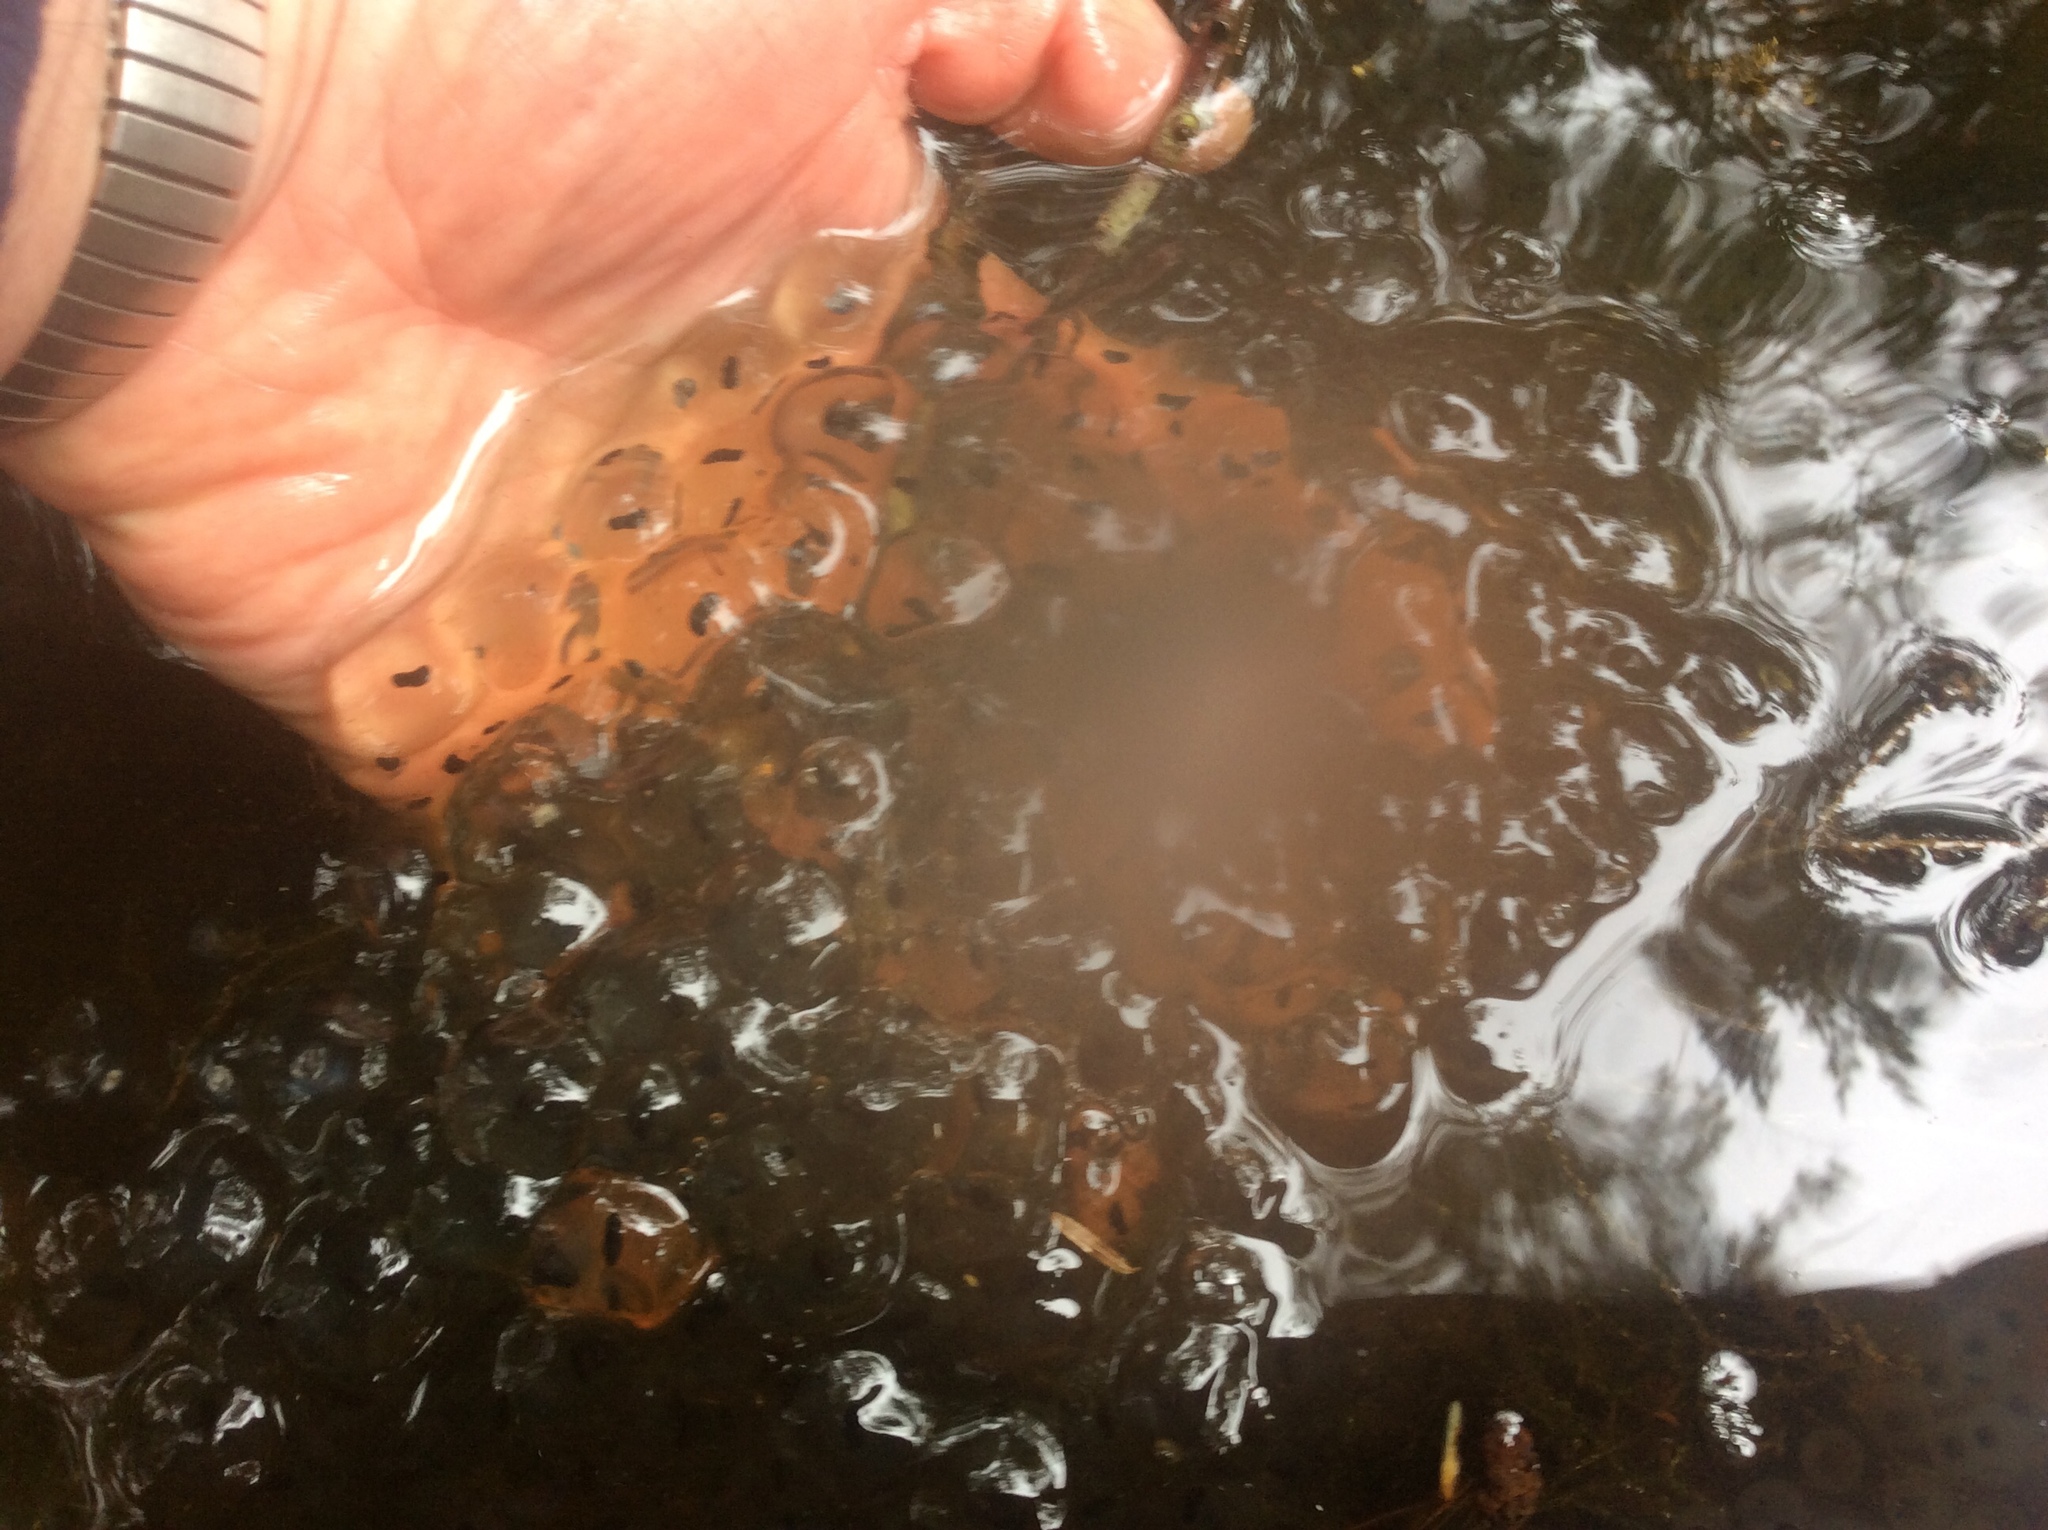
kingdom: Animalia
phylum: Chordata
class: Amphibia
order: Anura
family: Ranidae
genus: Lithobates
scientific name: Lithobates sylvaticus
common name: Wood frog
